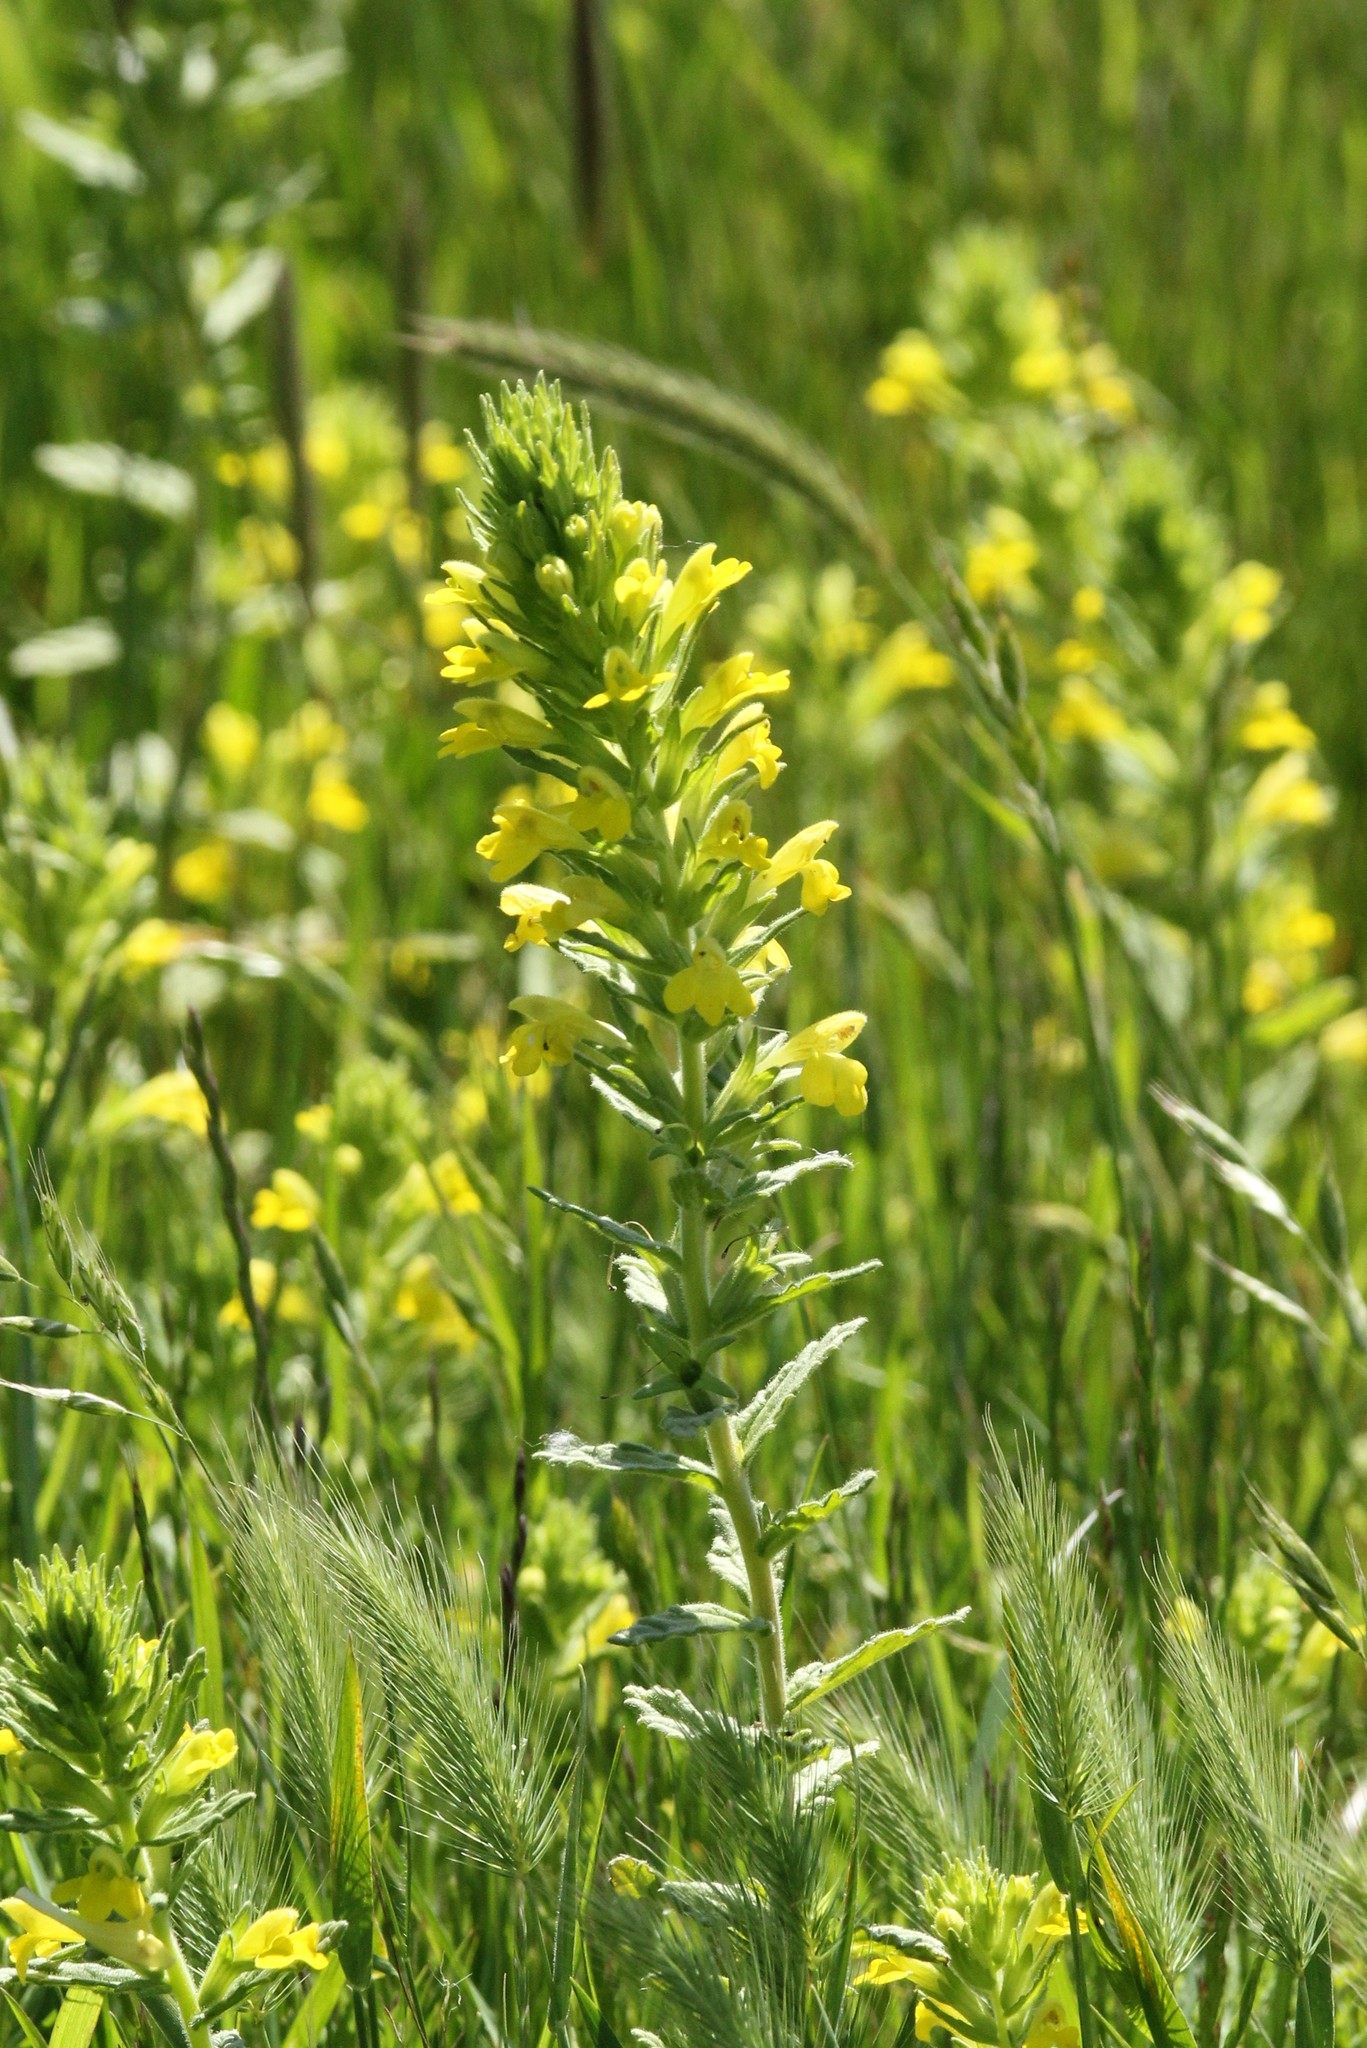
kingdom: Plantae
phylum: Tracheophyta
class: Magnoliopsida
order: Lamiales
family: Orobanchaceae
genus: Bellardia
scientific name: Bellardia viscosa
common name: Sticky parentucellia
